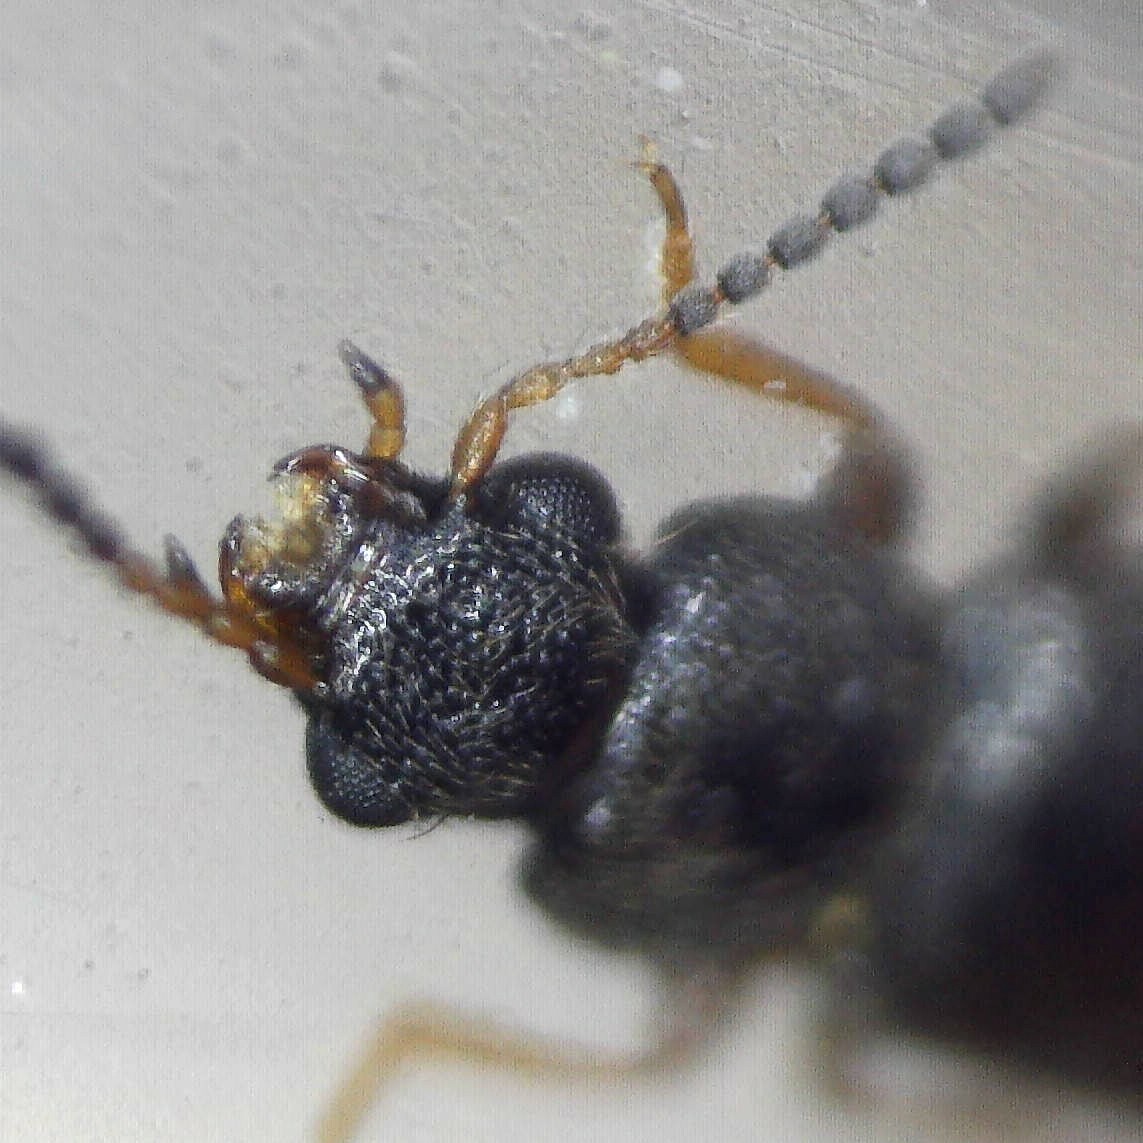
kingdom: Animalia
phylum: Arthropoda
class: Insecta
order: Coleoptera
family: Staphylinidae
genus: Philorinum
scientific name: Philorinum sordidum
